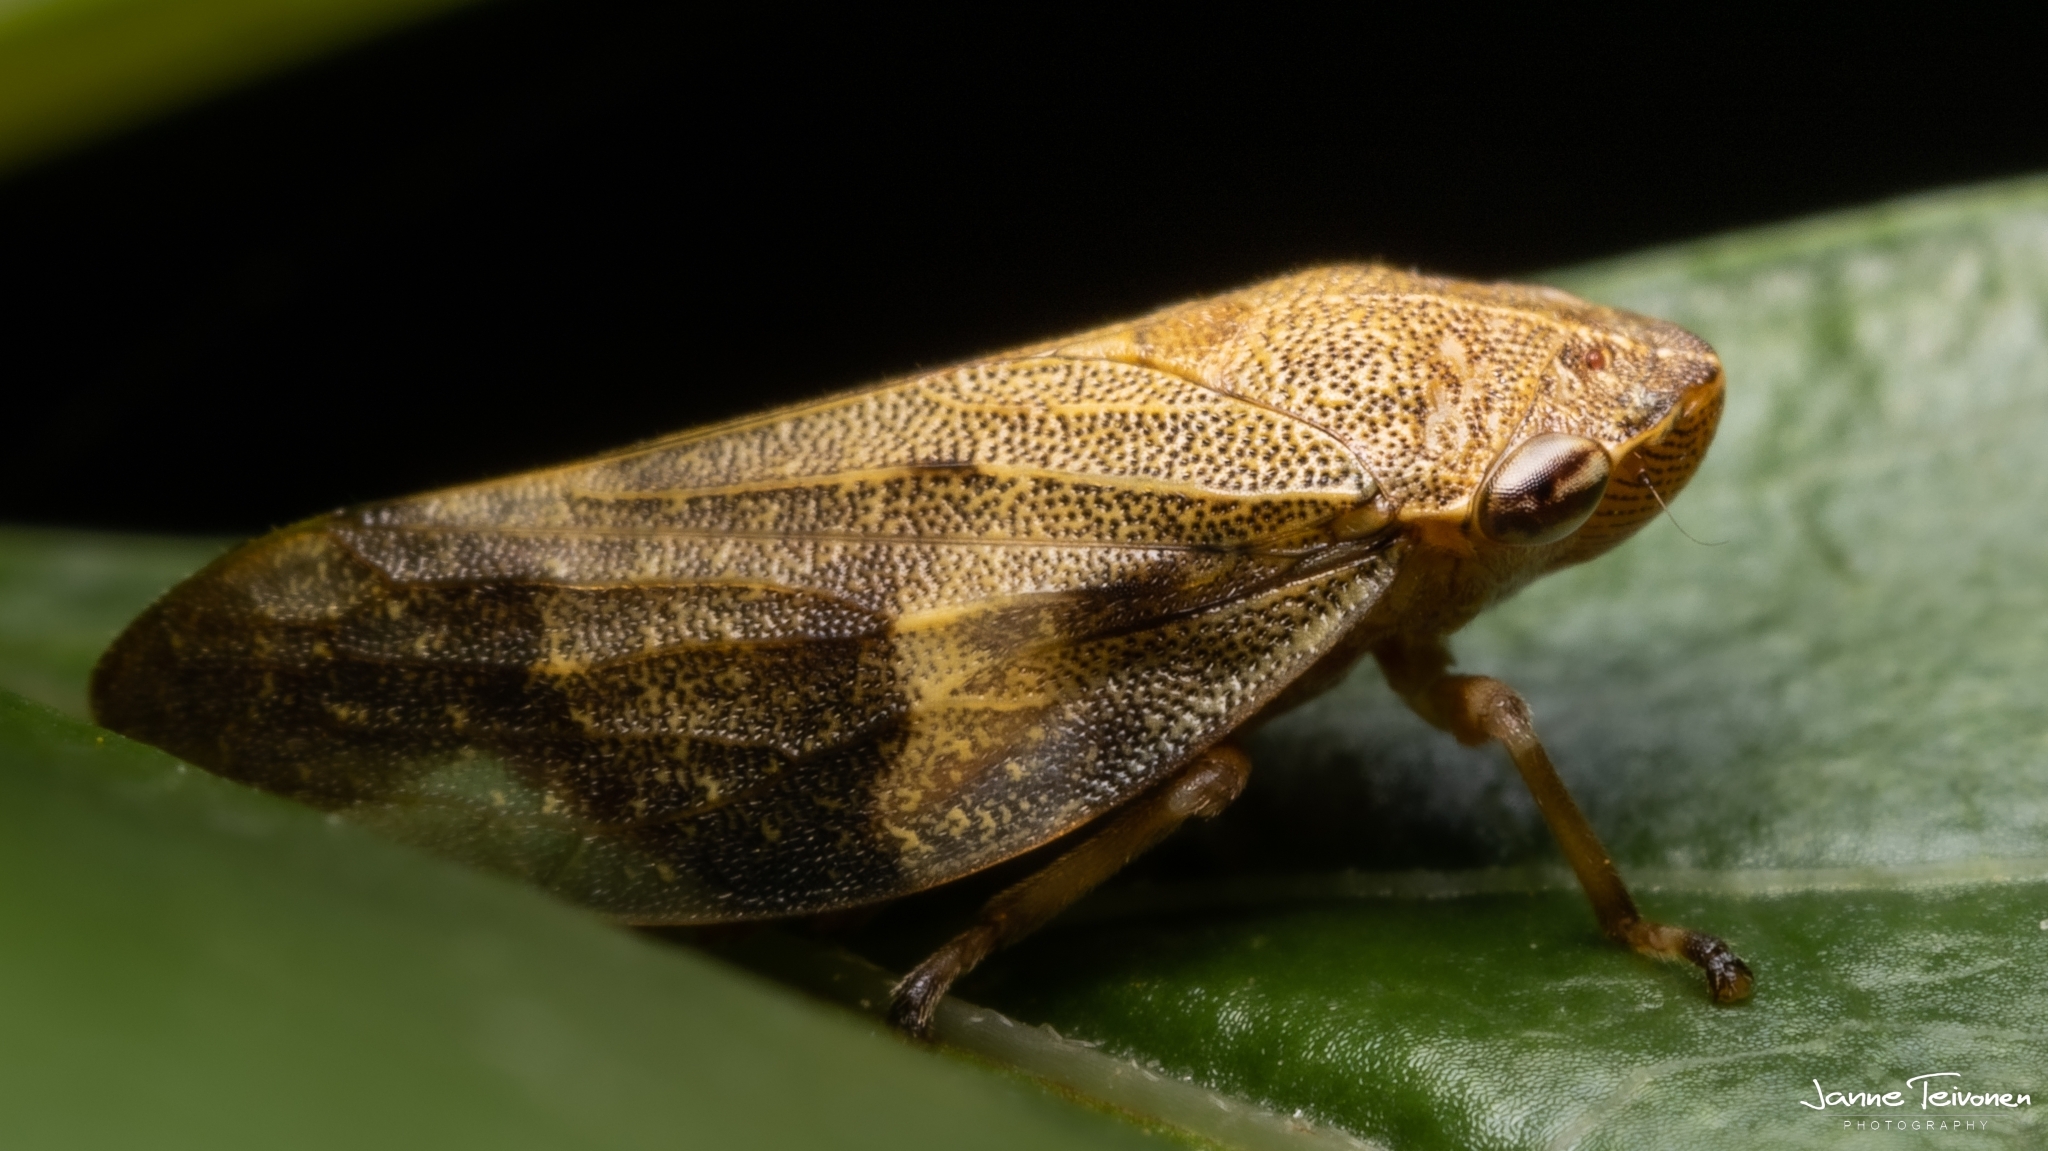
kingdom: Animalia
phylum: Arthropoda
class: Insecta
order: Hemiptera
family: Aphrophoridae
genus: Aphrophora
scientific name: Aphrophora alni
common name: European alder spittlebug
